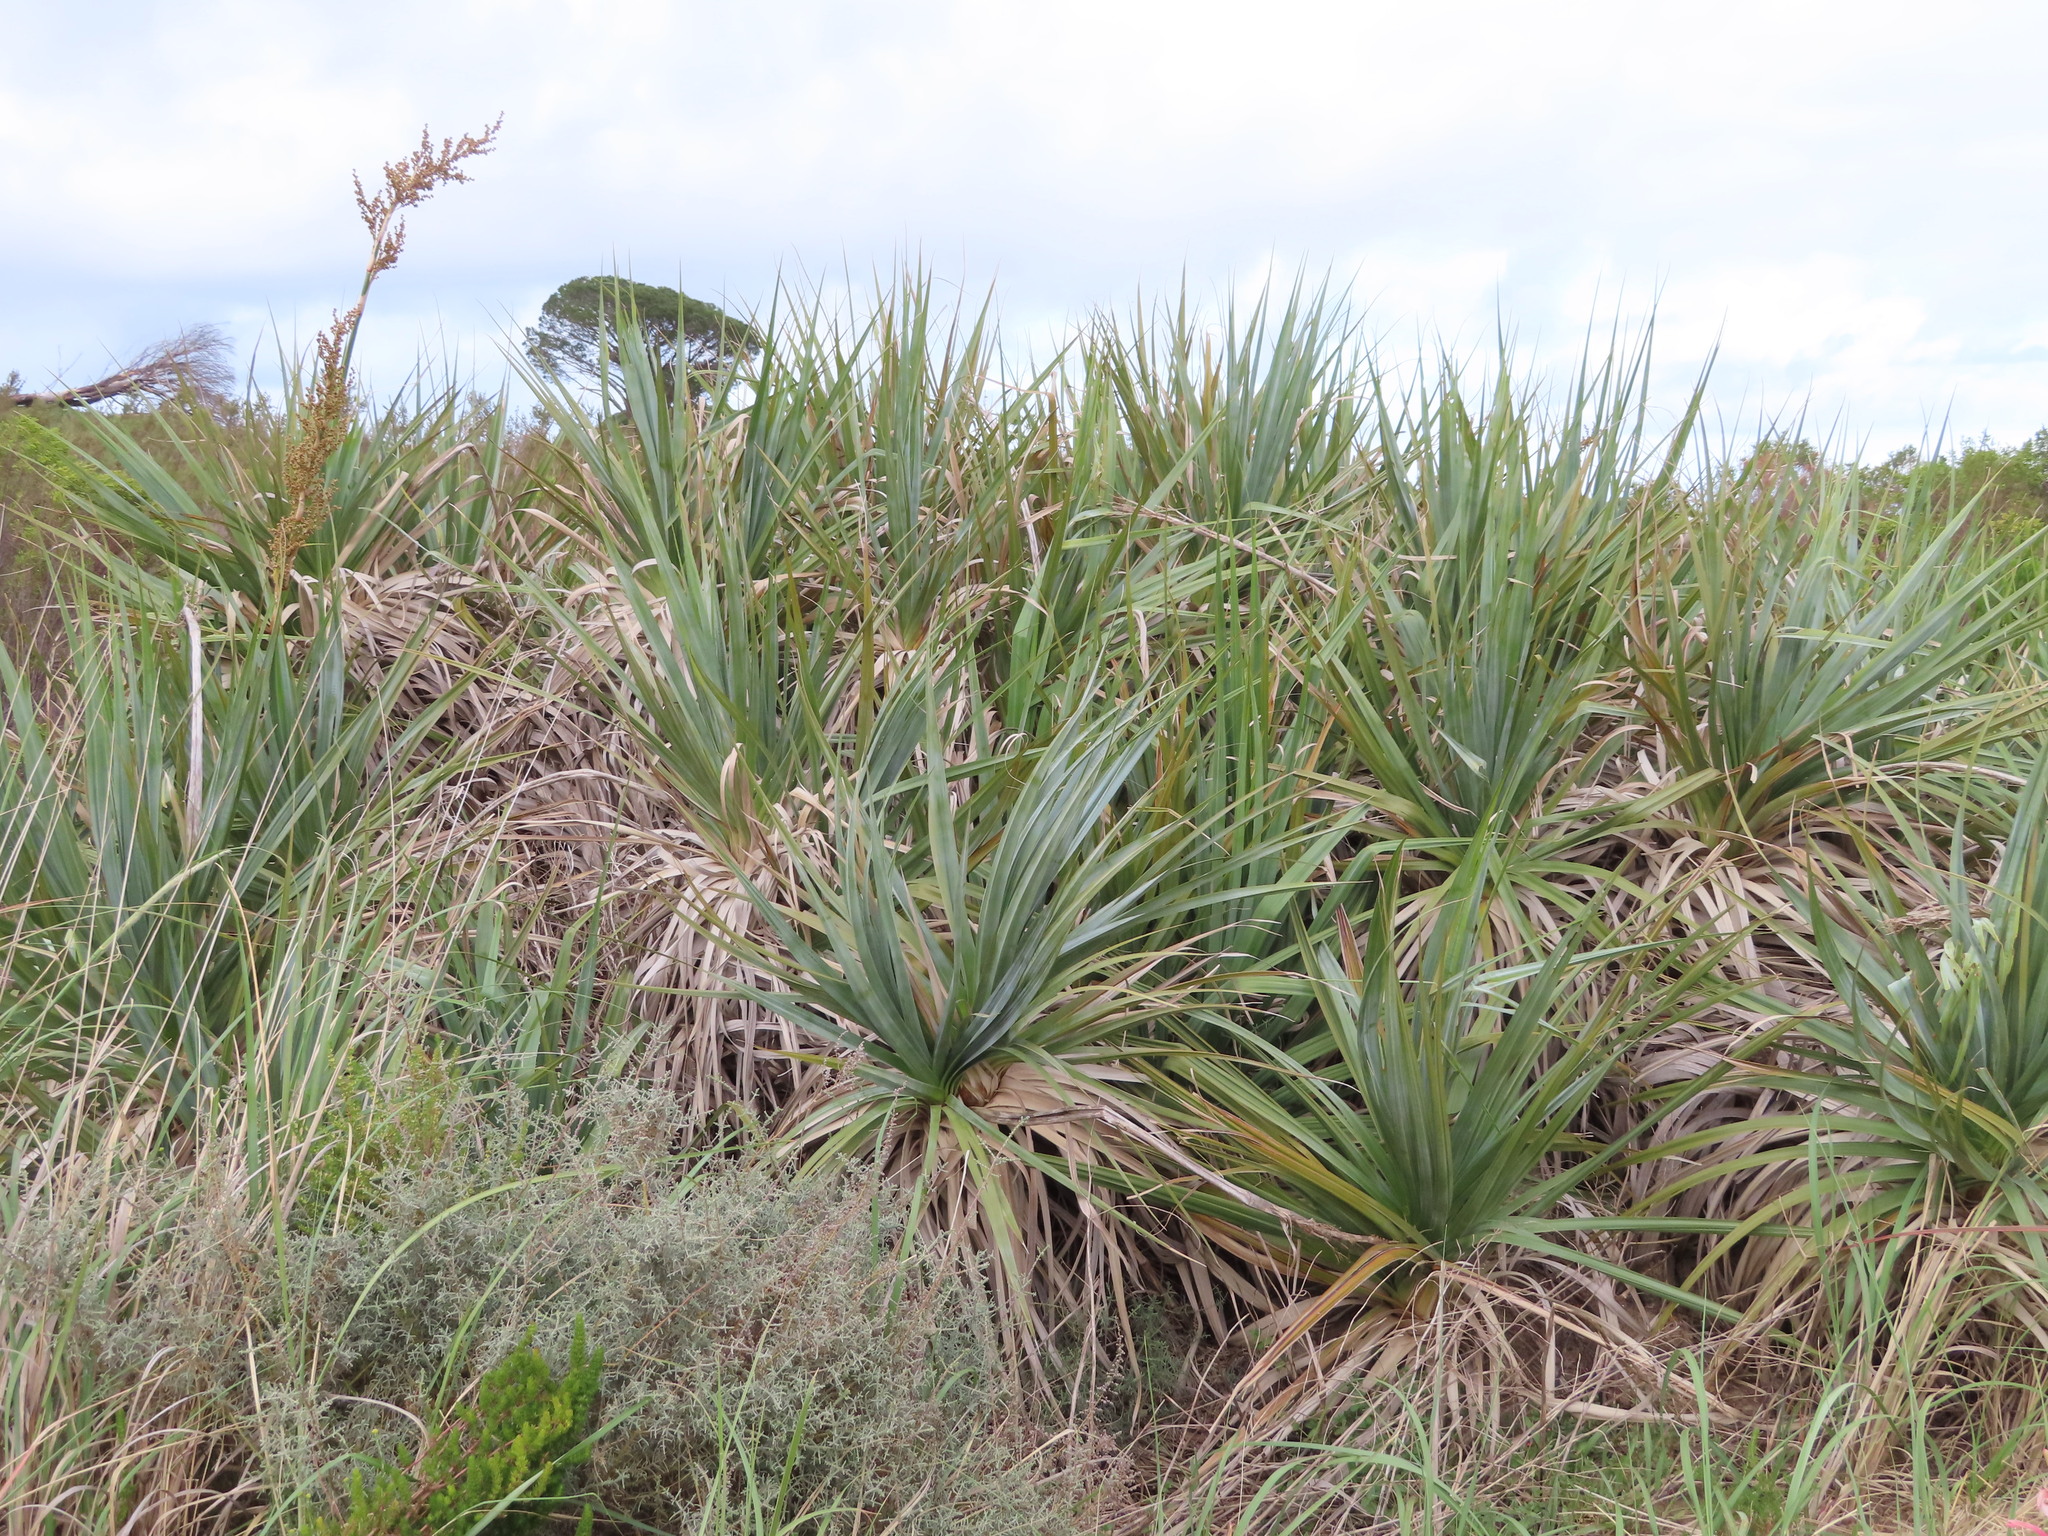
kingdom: Plantae
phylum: Tracheophyta
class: Liliopsida
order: Poales
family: Thurniaceae
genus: Prionium
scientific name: Prionium serratum
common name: Palmiet
